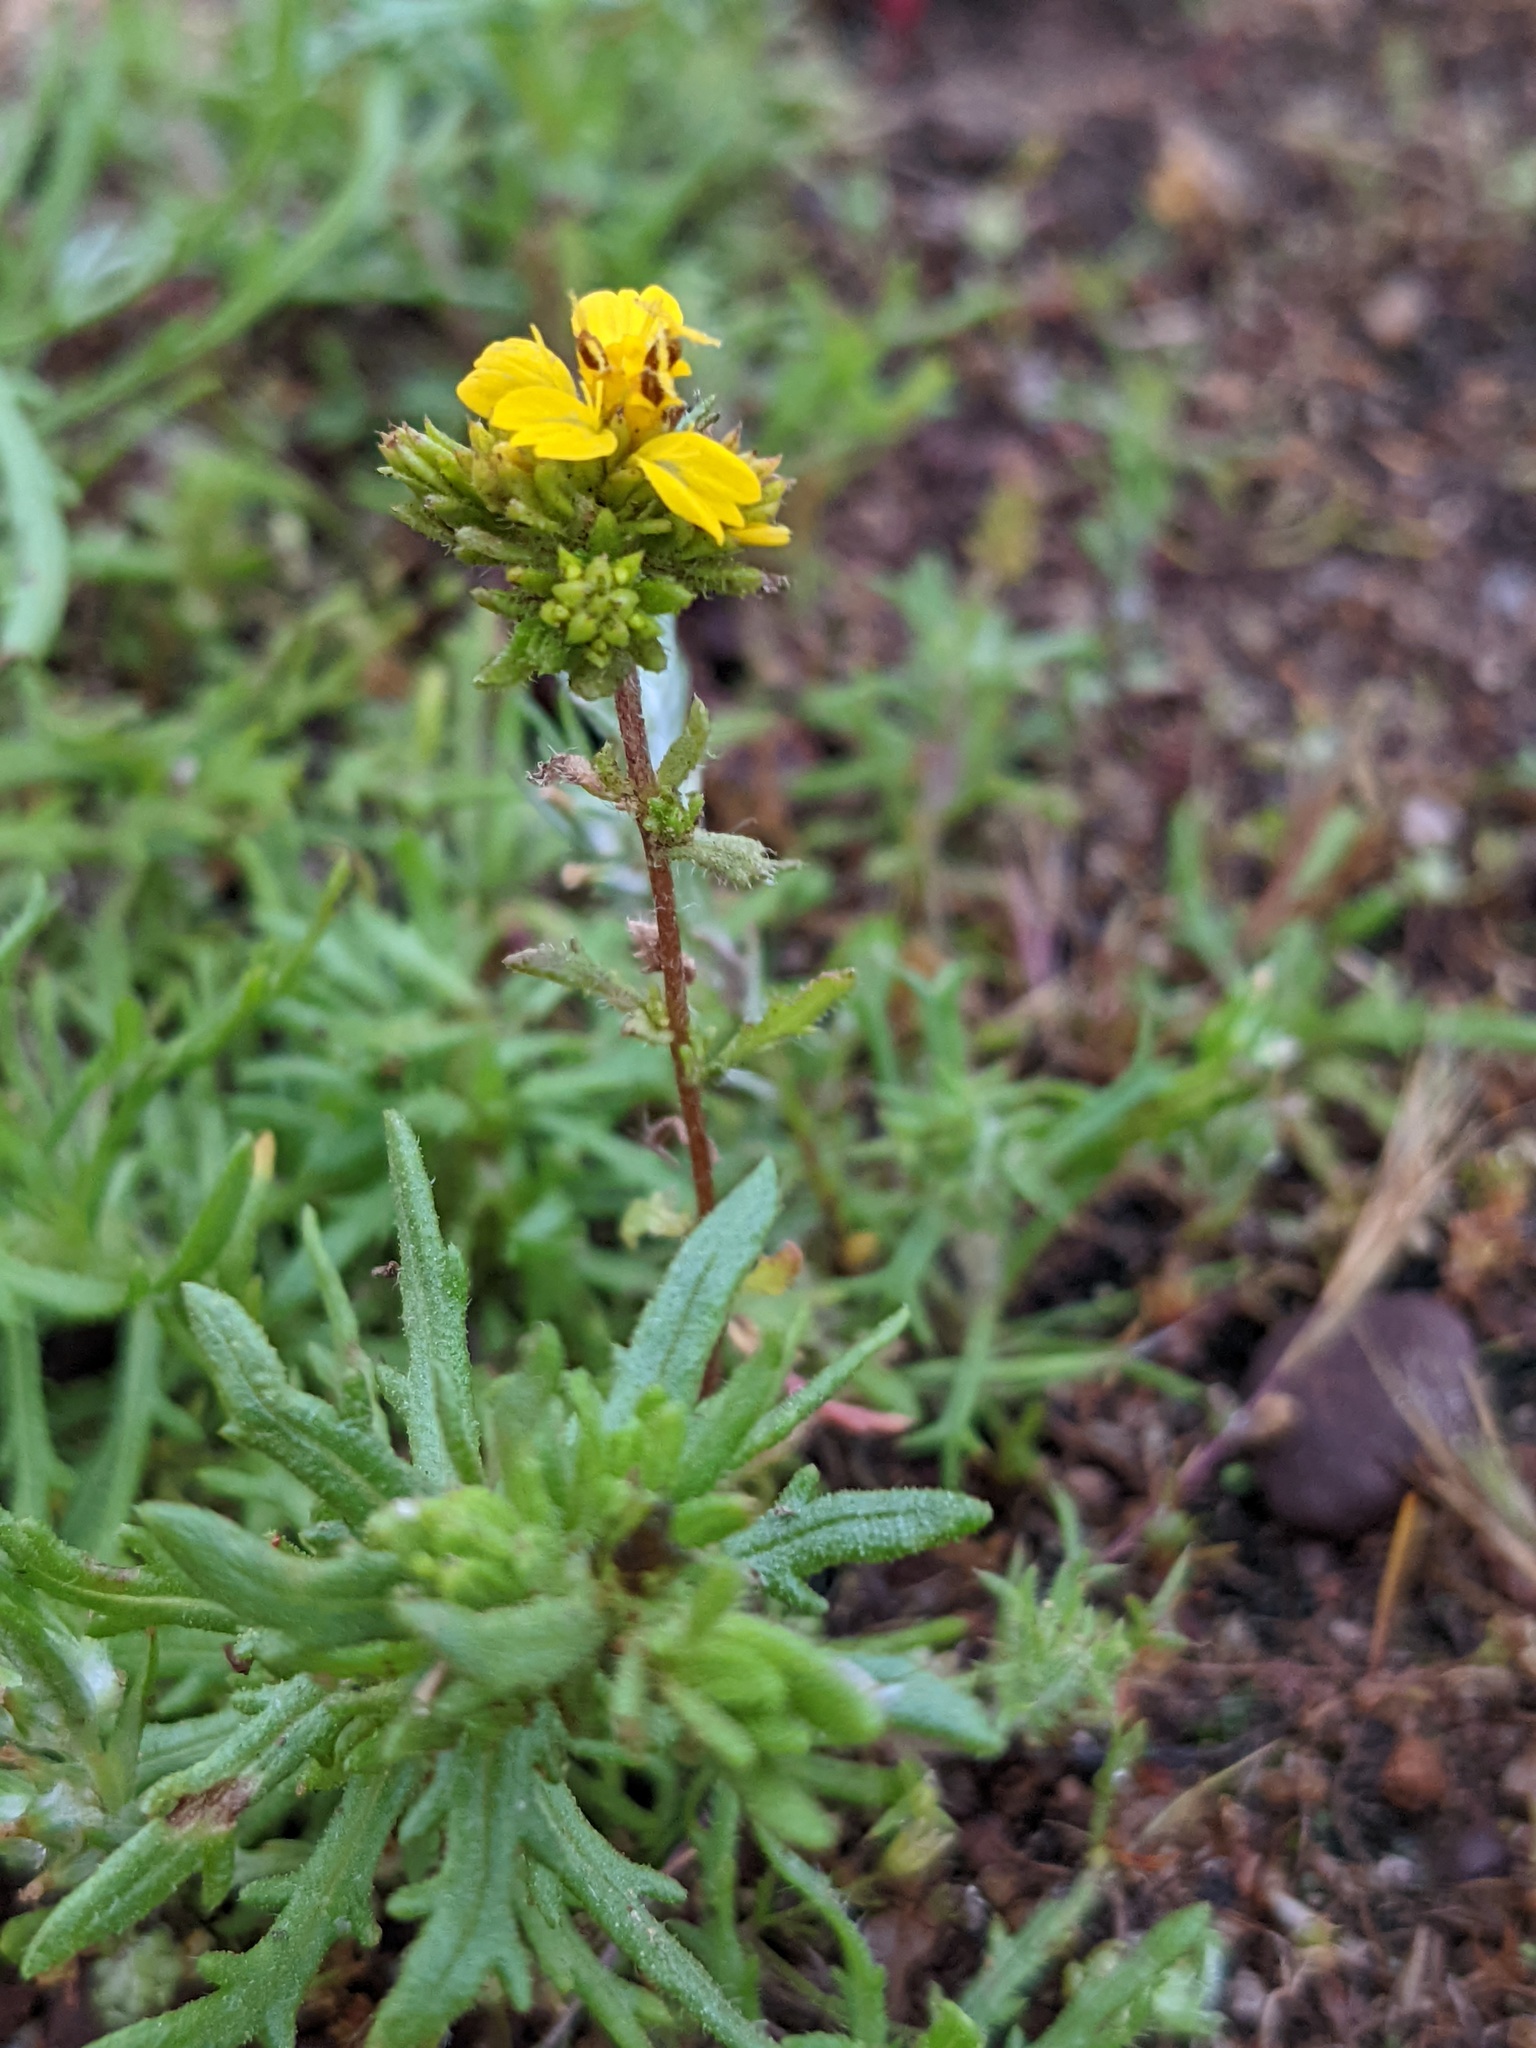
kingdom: Plantae
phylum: Tracheophyta
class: Magnoliopsida
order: Asterales
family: Asteraceae
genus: Deinandra
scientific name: Deinandra fasciculata
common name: Clustered tarweed
